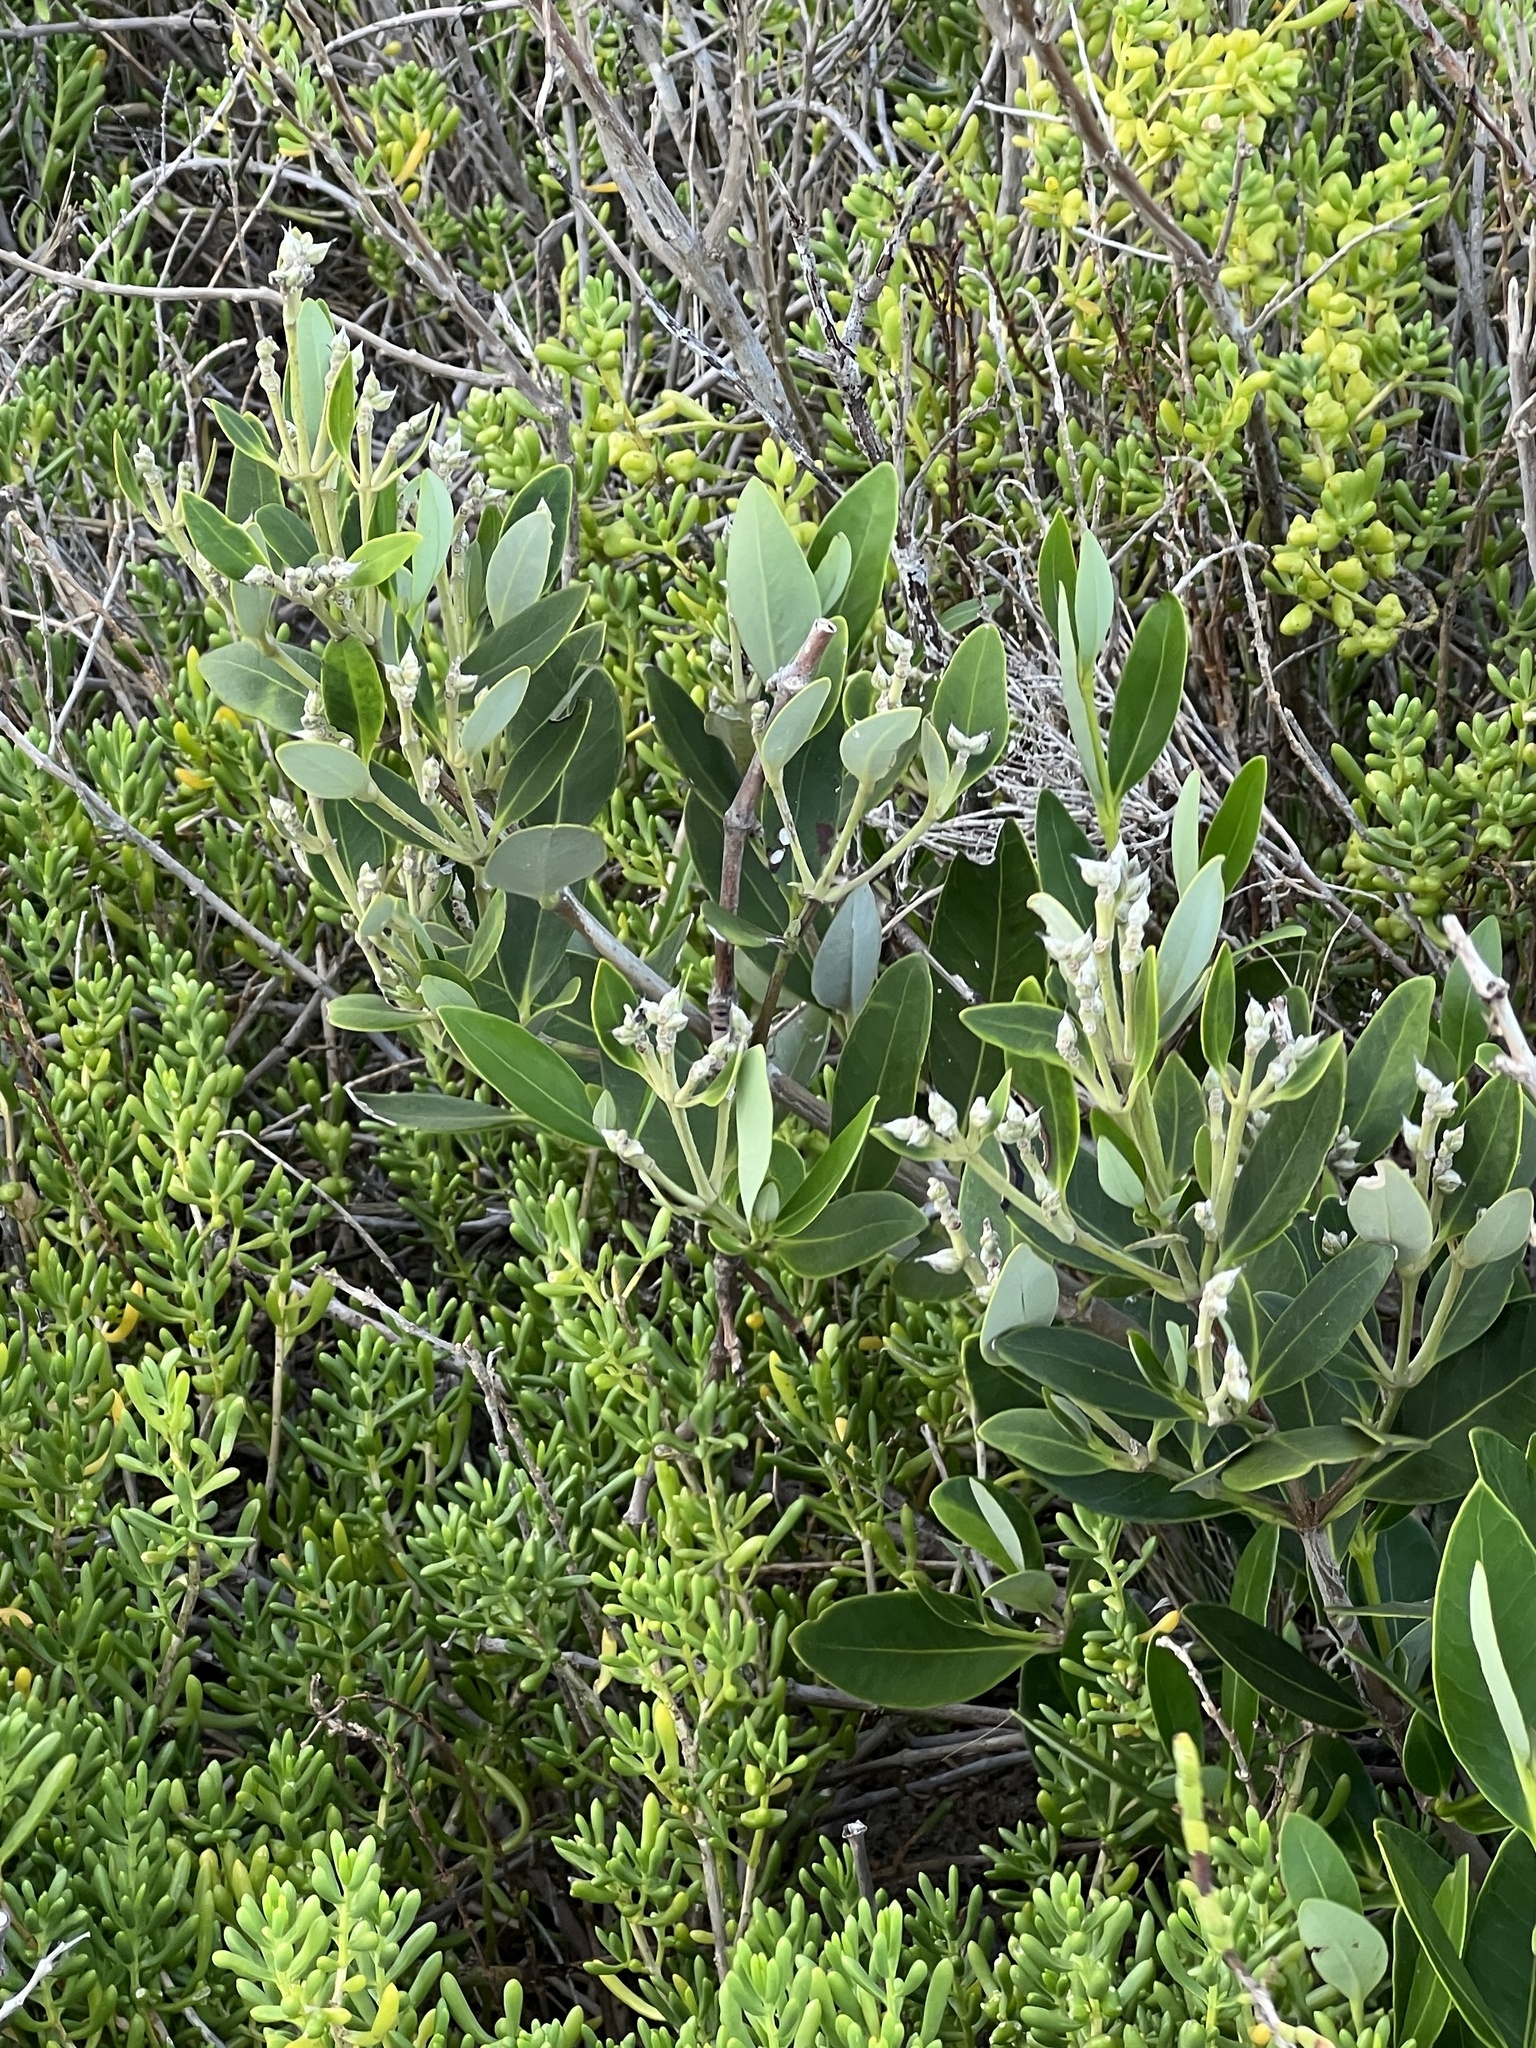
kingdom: Plantae
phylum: Tracheophyta
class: Magnoliopsida
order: Lamiales
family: Acanthaceae
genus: Avicennia
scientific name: Avicennia germinans
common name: Black mangrove
